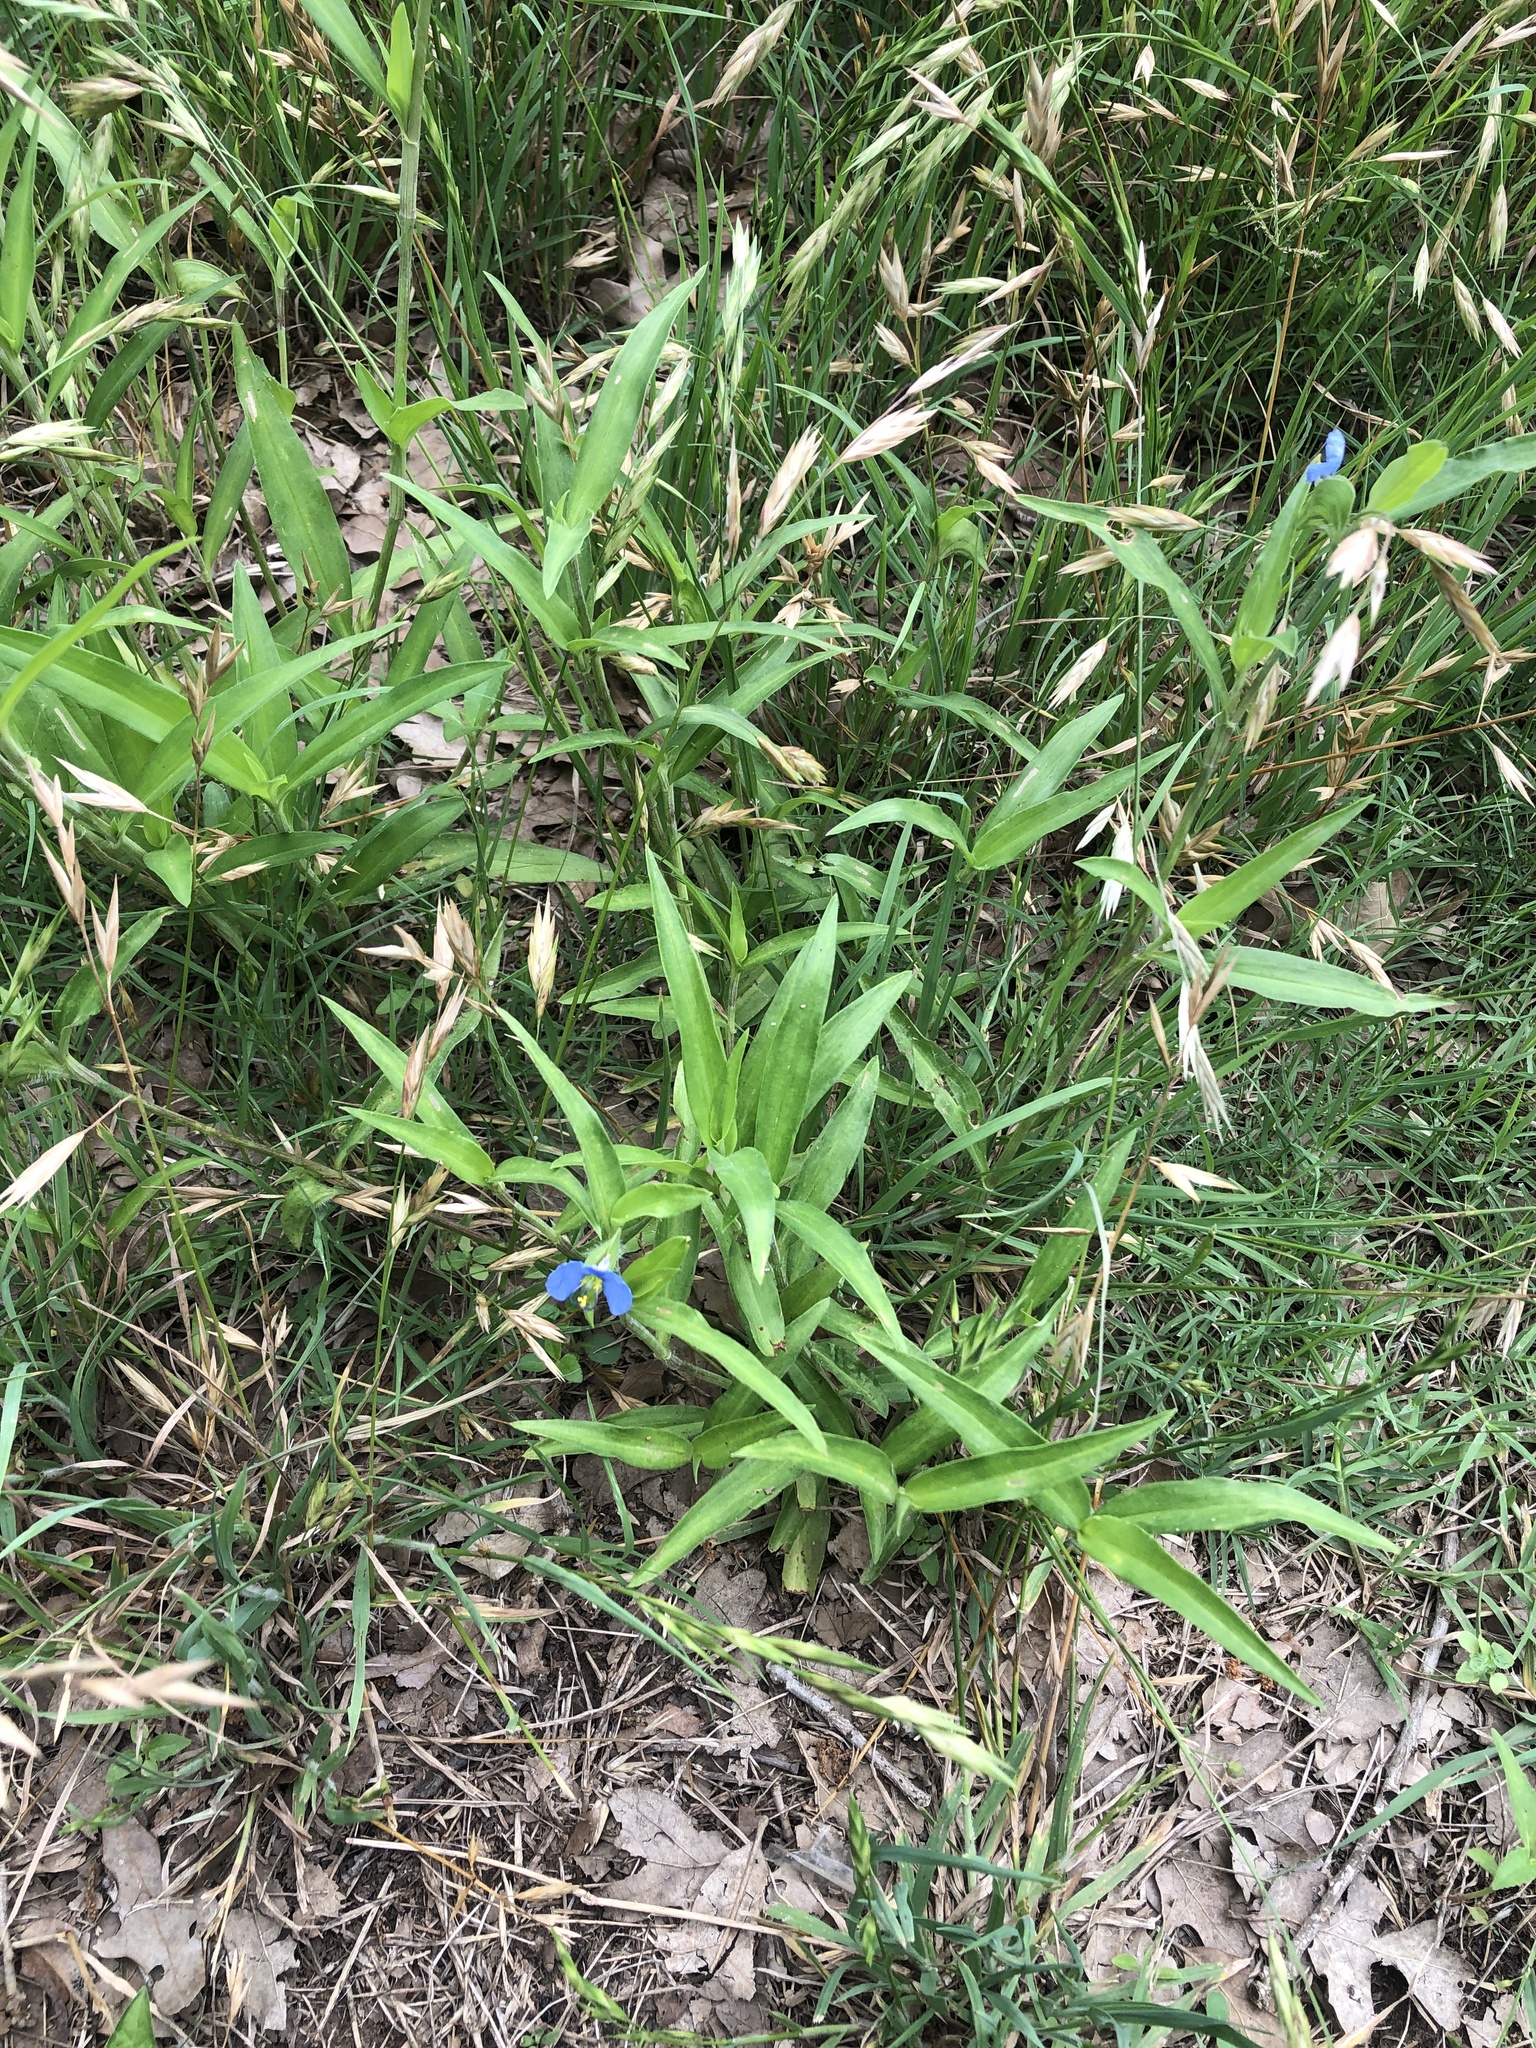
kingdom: Plantae
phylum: Tracheophyta
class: Liliopsida
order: Commelinales
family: Commelinaceae
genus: Commelina
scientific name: Commelina erecta
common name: Blousel blommetjie
